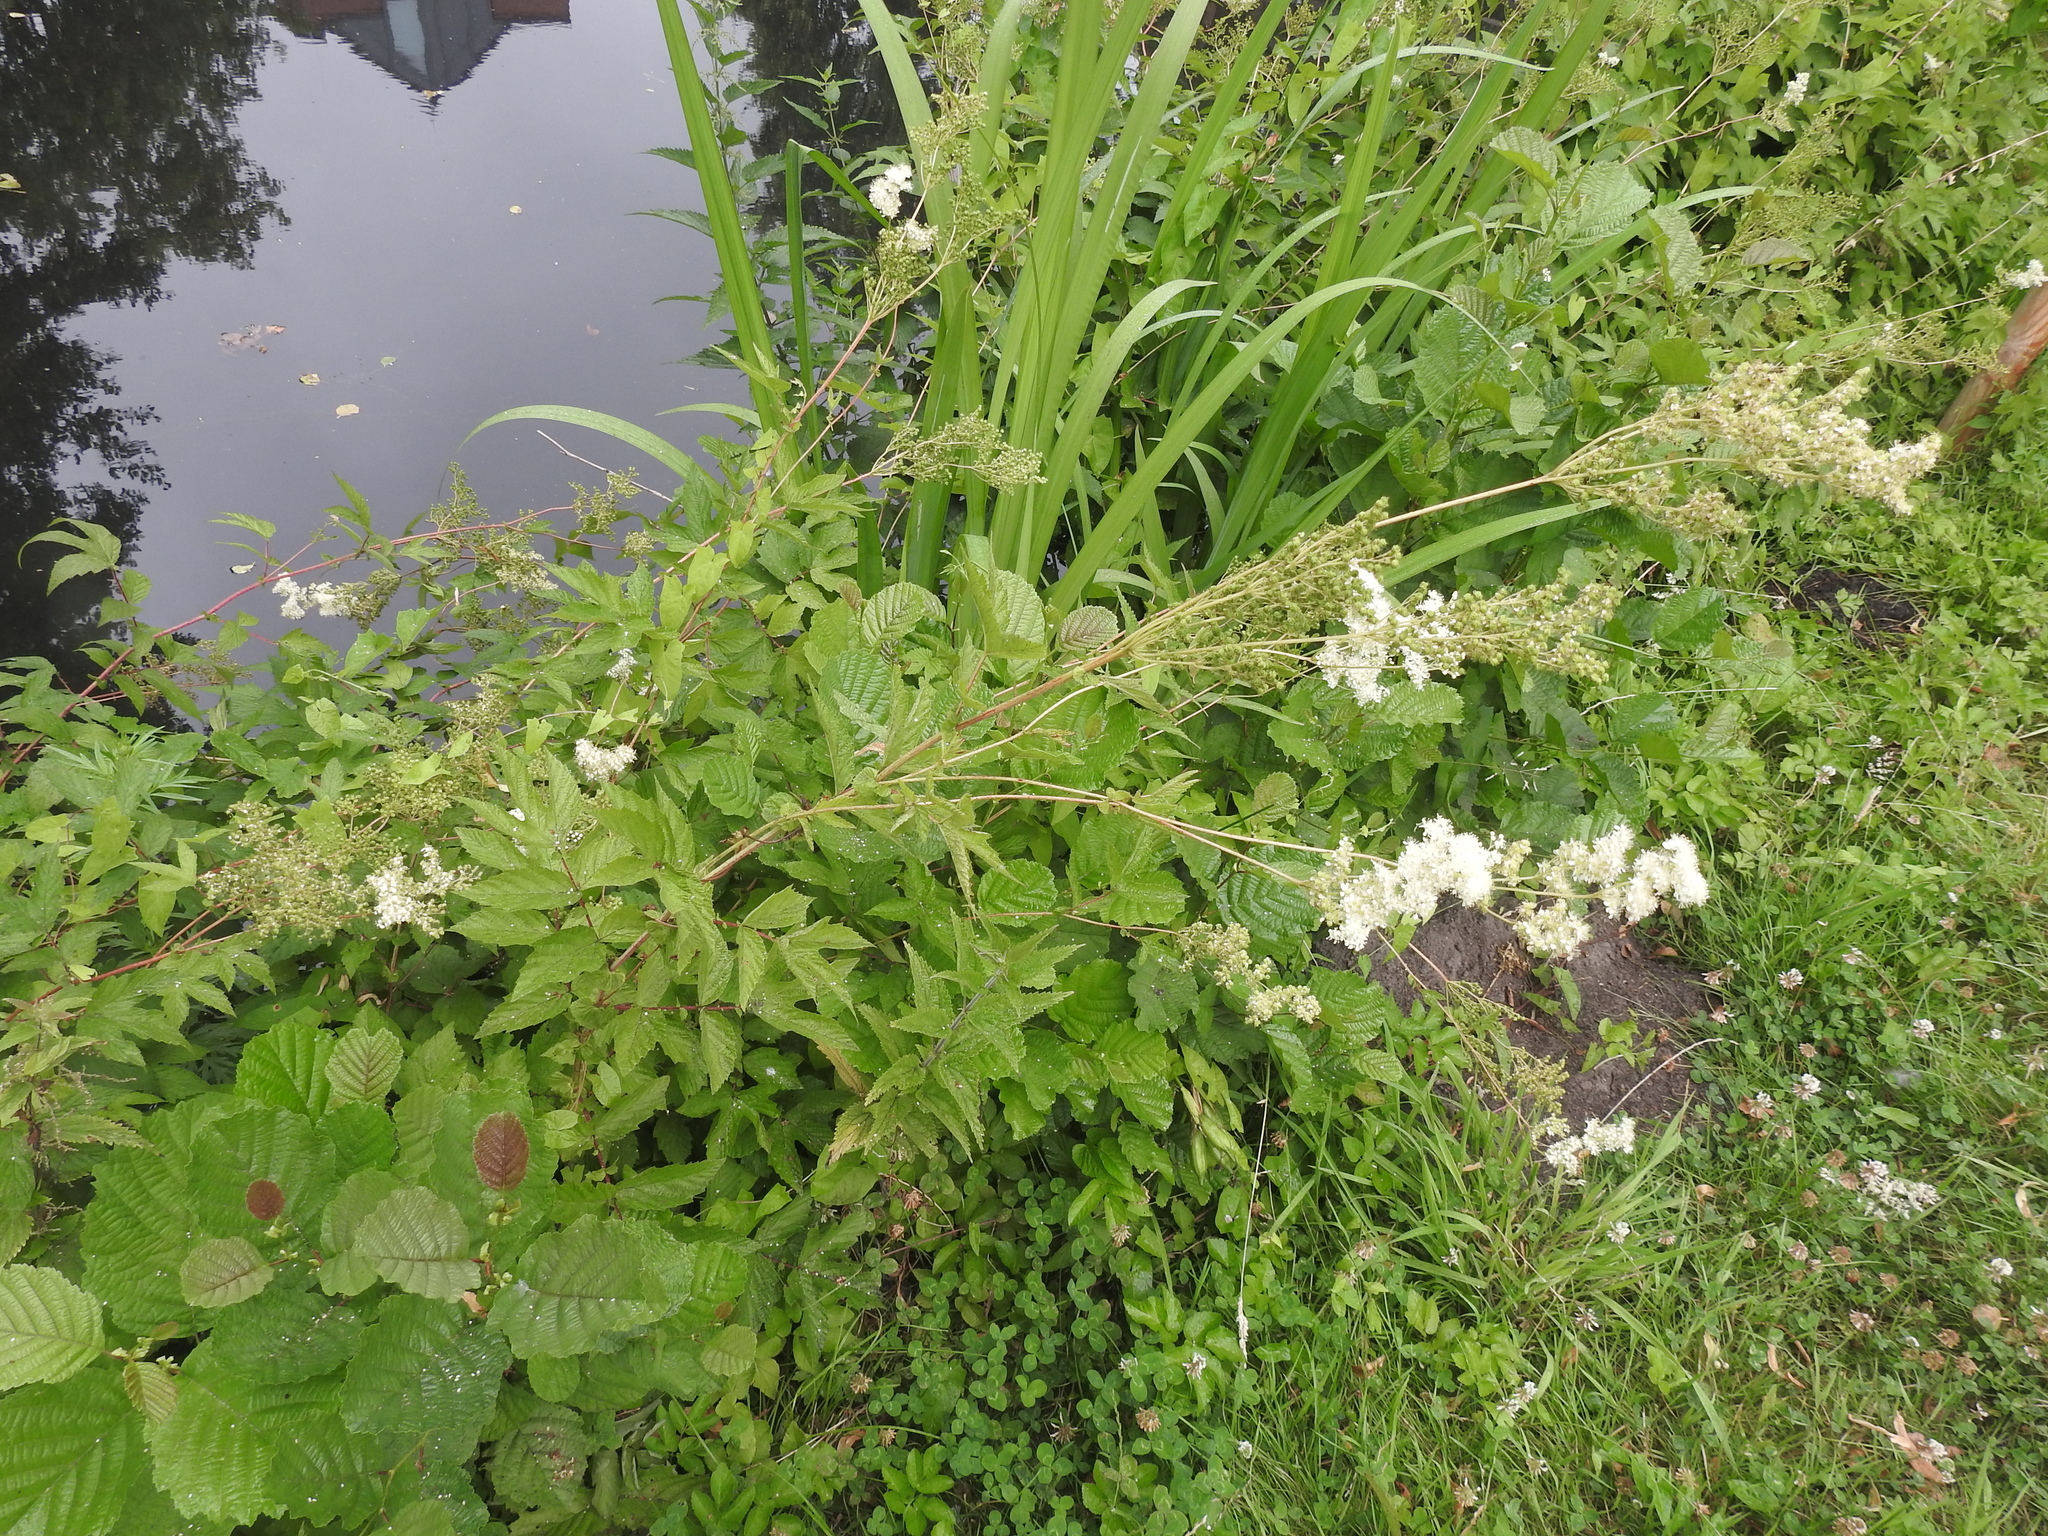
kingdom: Plantae
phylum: Tracheophyta
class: Magnoliopsida
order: Rosales
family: Rosaceae
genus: Filipendula
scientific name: Filipendula ulmaria
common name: Meadowsweet
